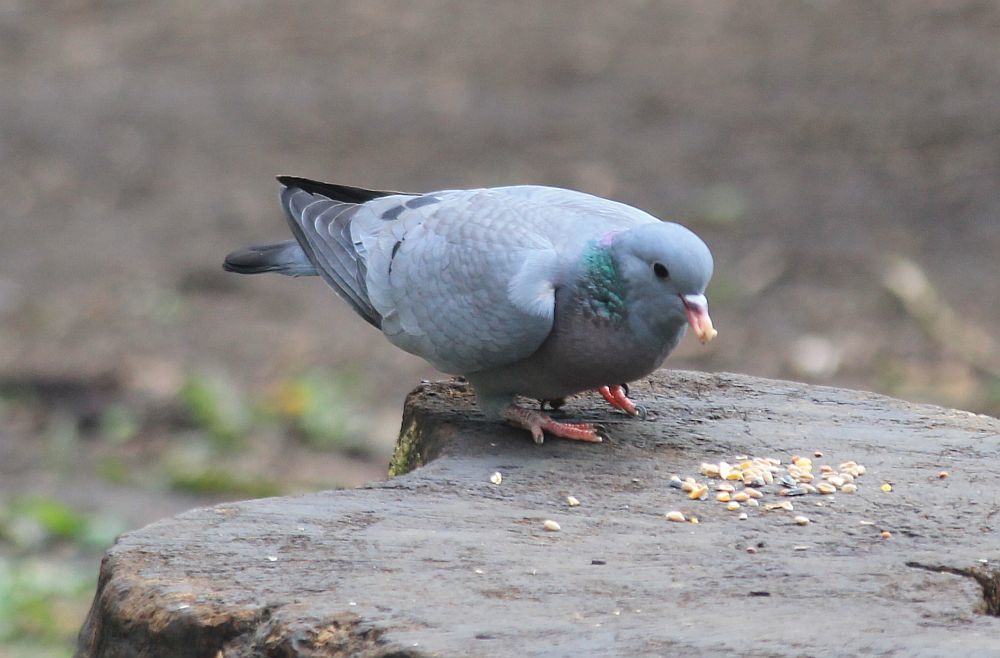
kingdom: Animalia
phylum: Chordata
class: Aves
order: Columbiformes
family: Columbidae
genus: Columba
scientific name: Columba oenas
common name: Stock dove
